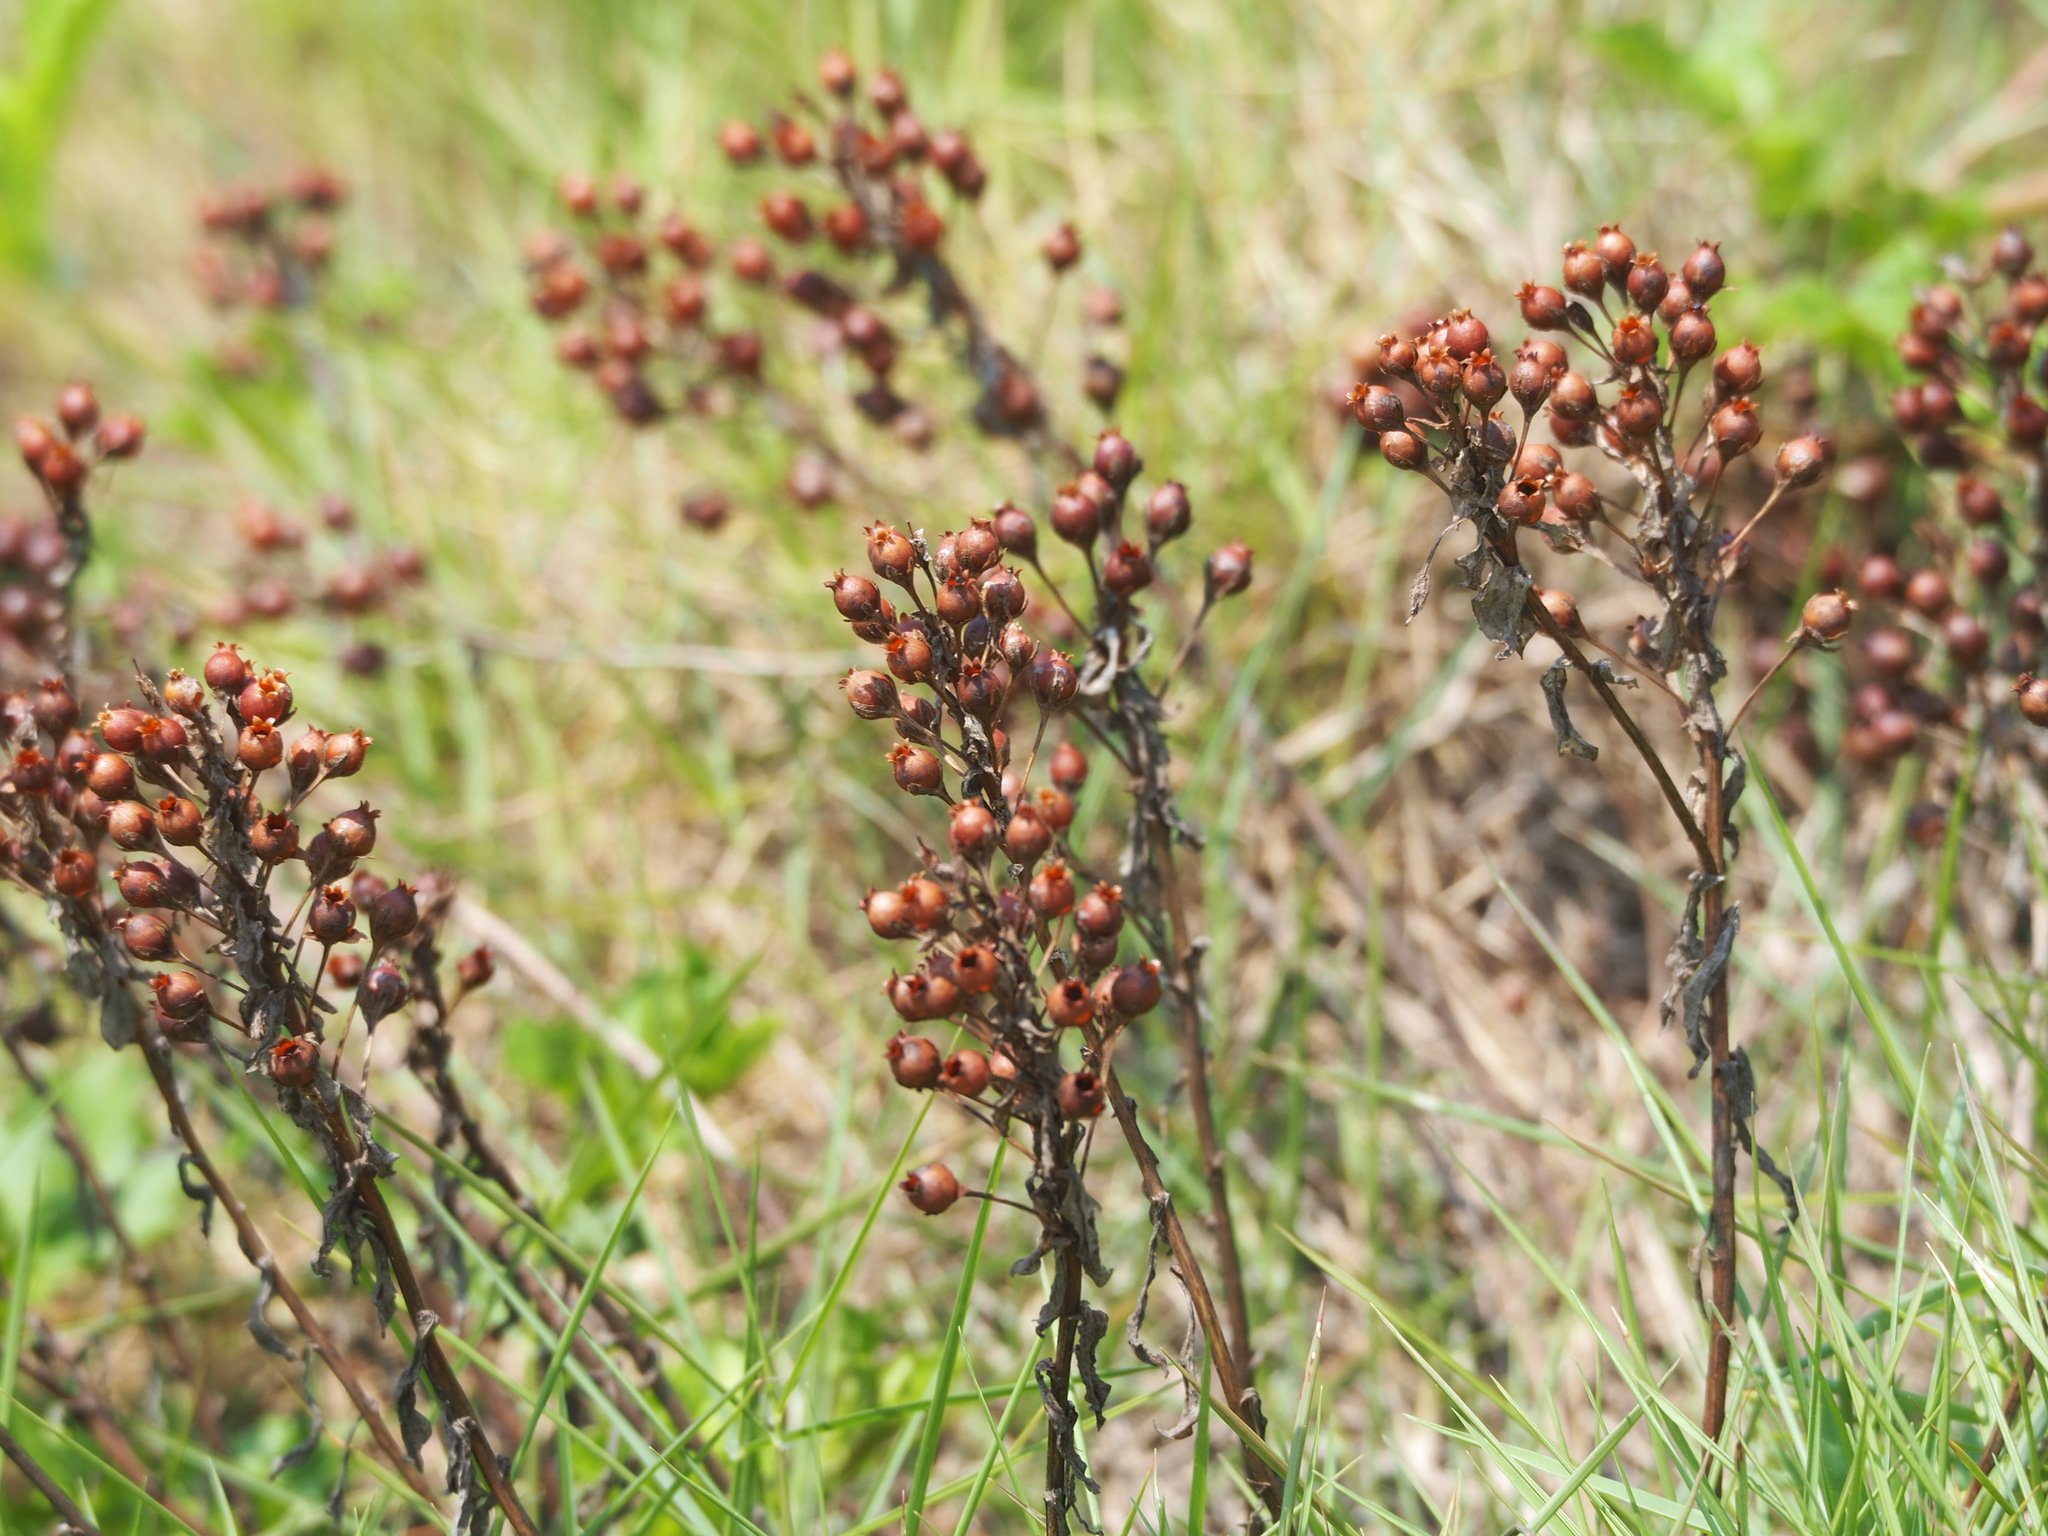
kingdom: Plantae
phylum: Tracheophyta
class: Magnoliopsida
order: Ericales
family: Primulaceae
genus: Lysimachia
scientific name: Lysimachia mauritiana
